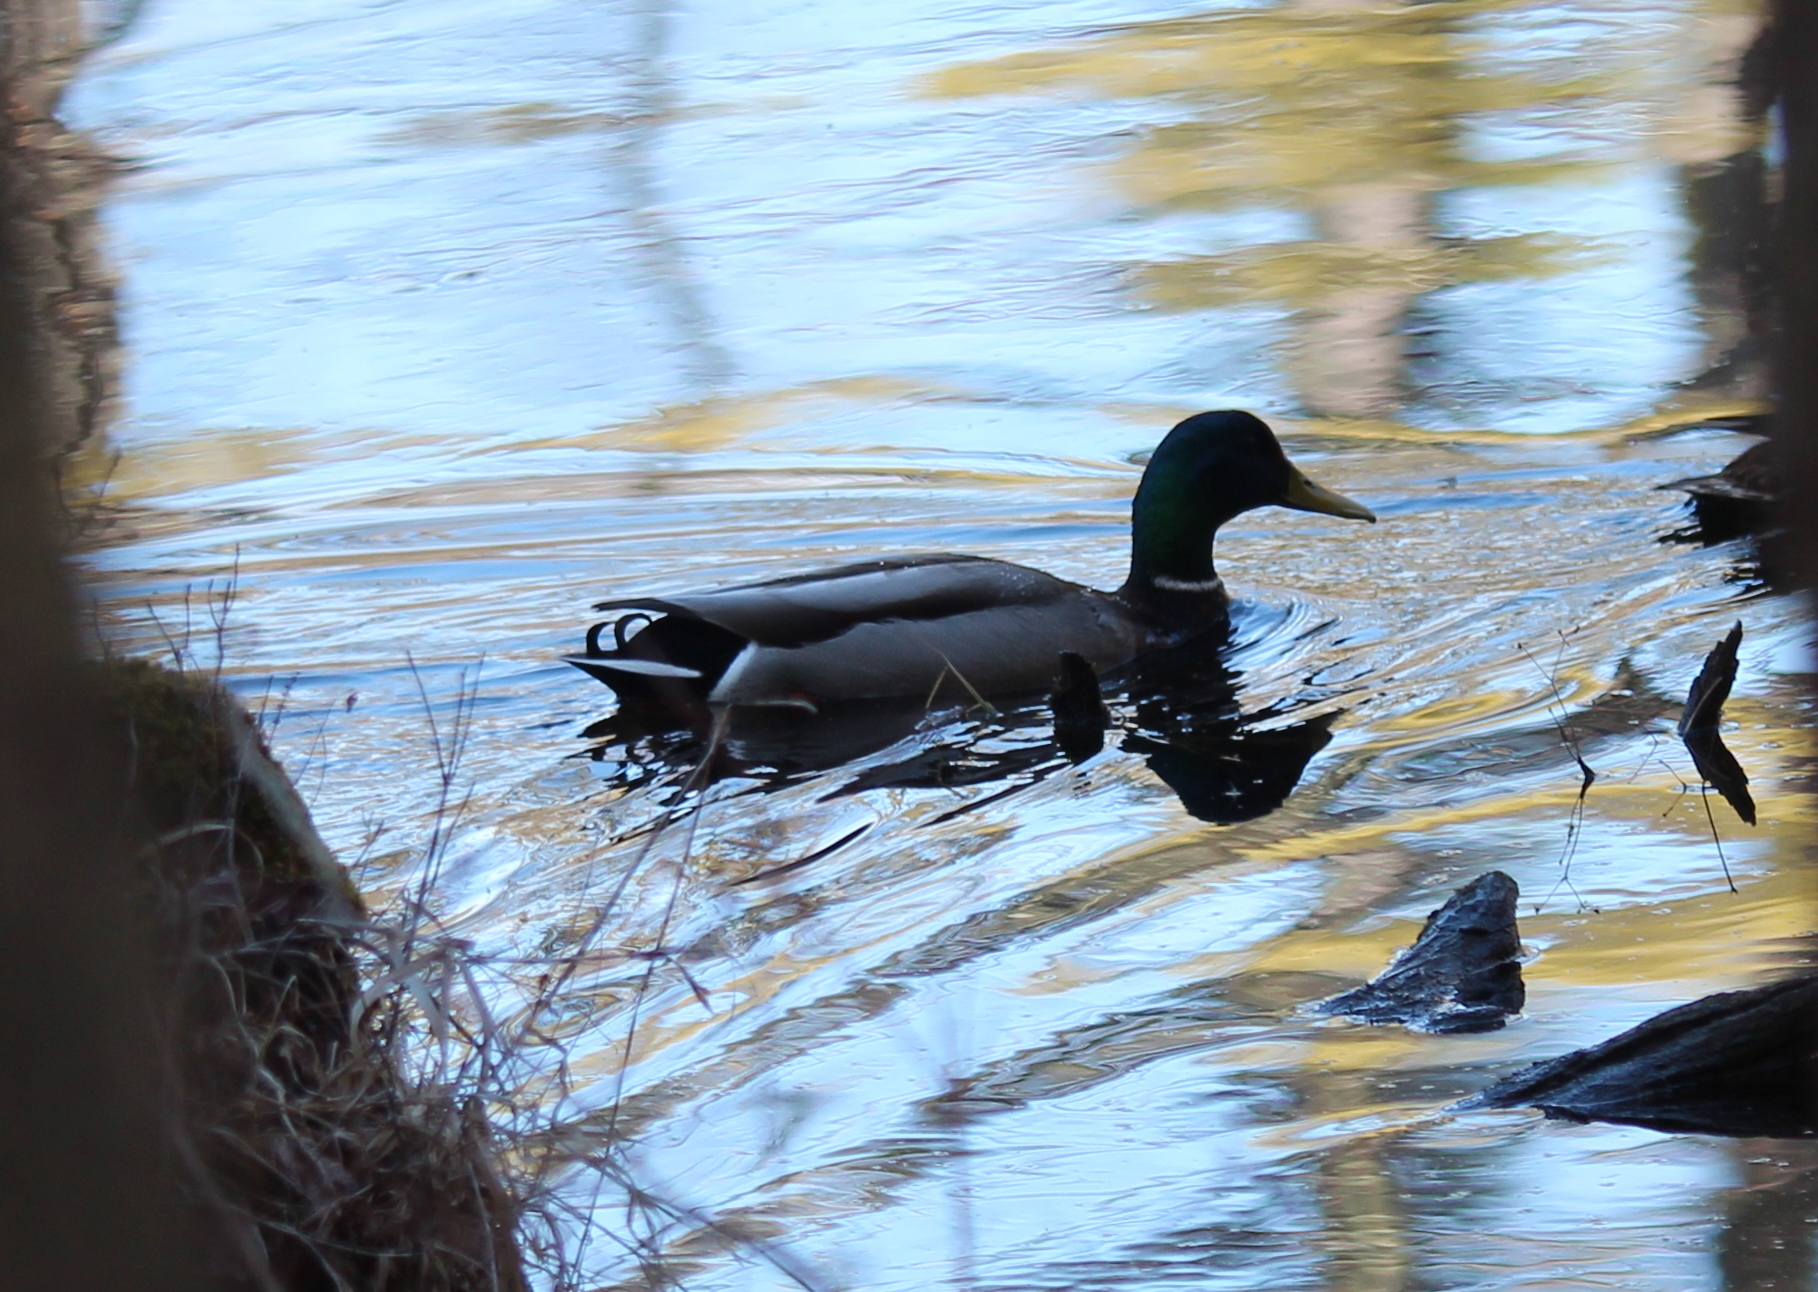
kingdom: Animalia
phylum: Chordata
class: Aves
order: Anseriformes
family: Anatidae
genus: Anas
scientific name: Anas platyrhynchos
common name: Mallard
